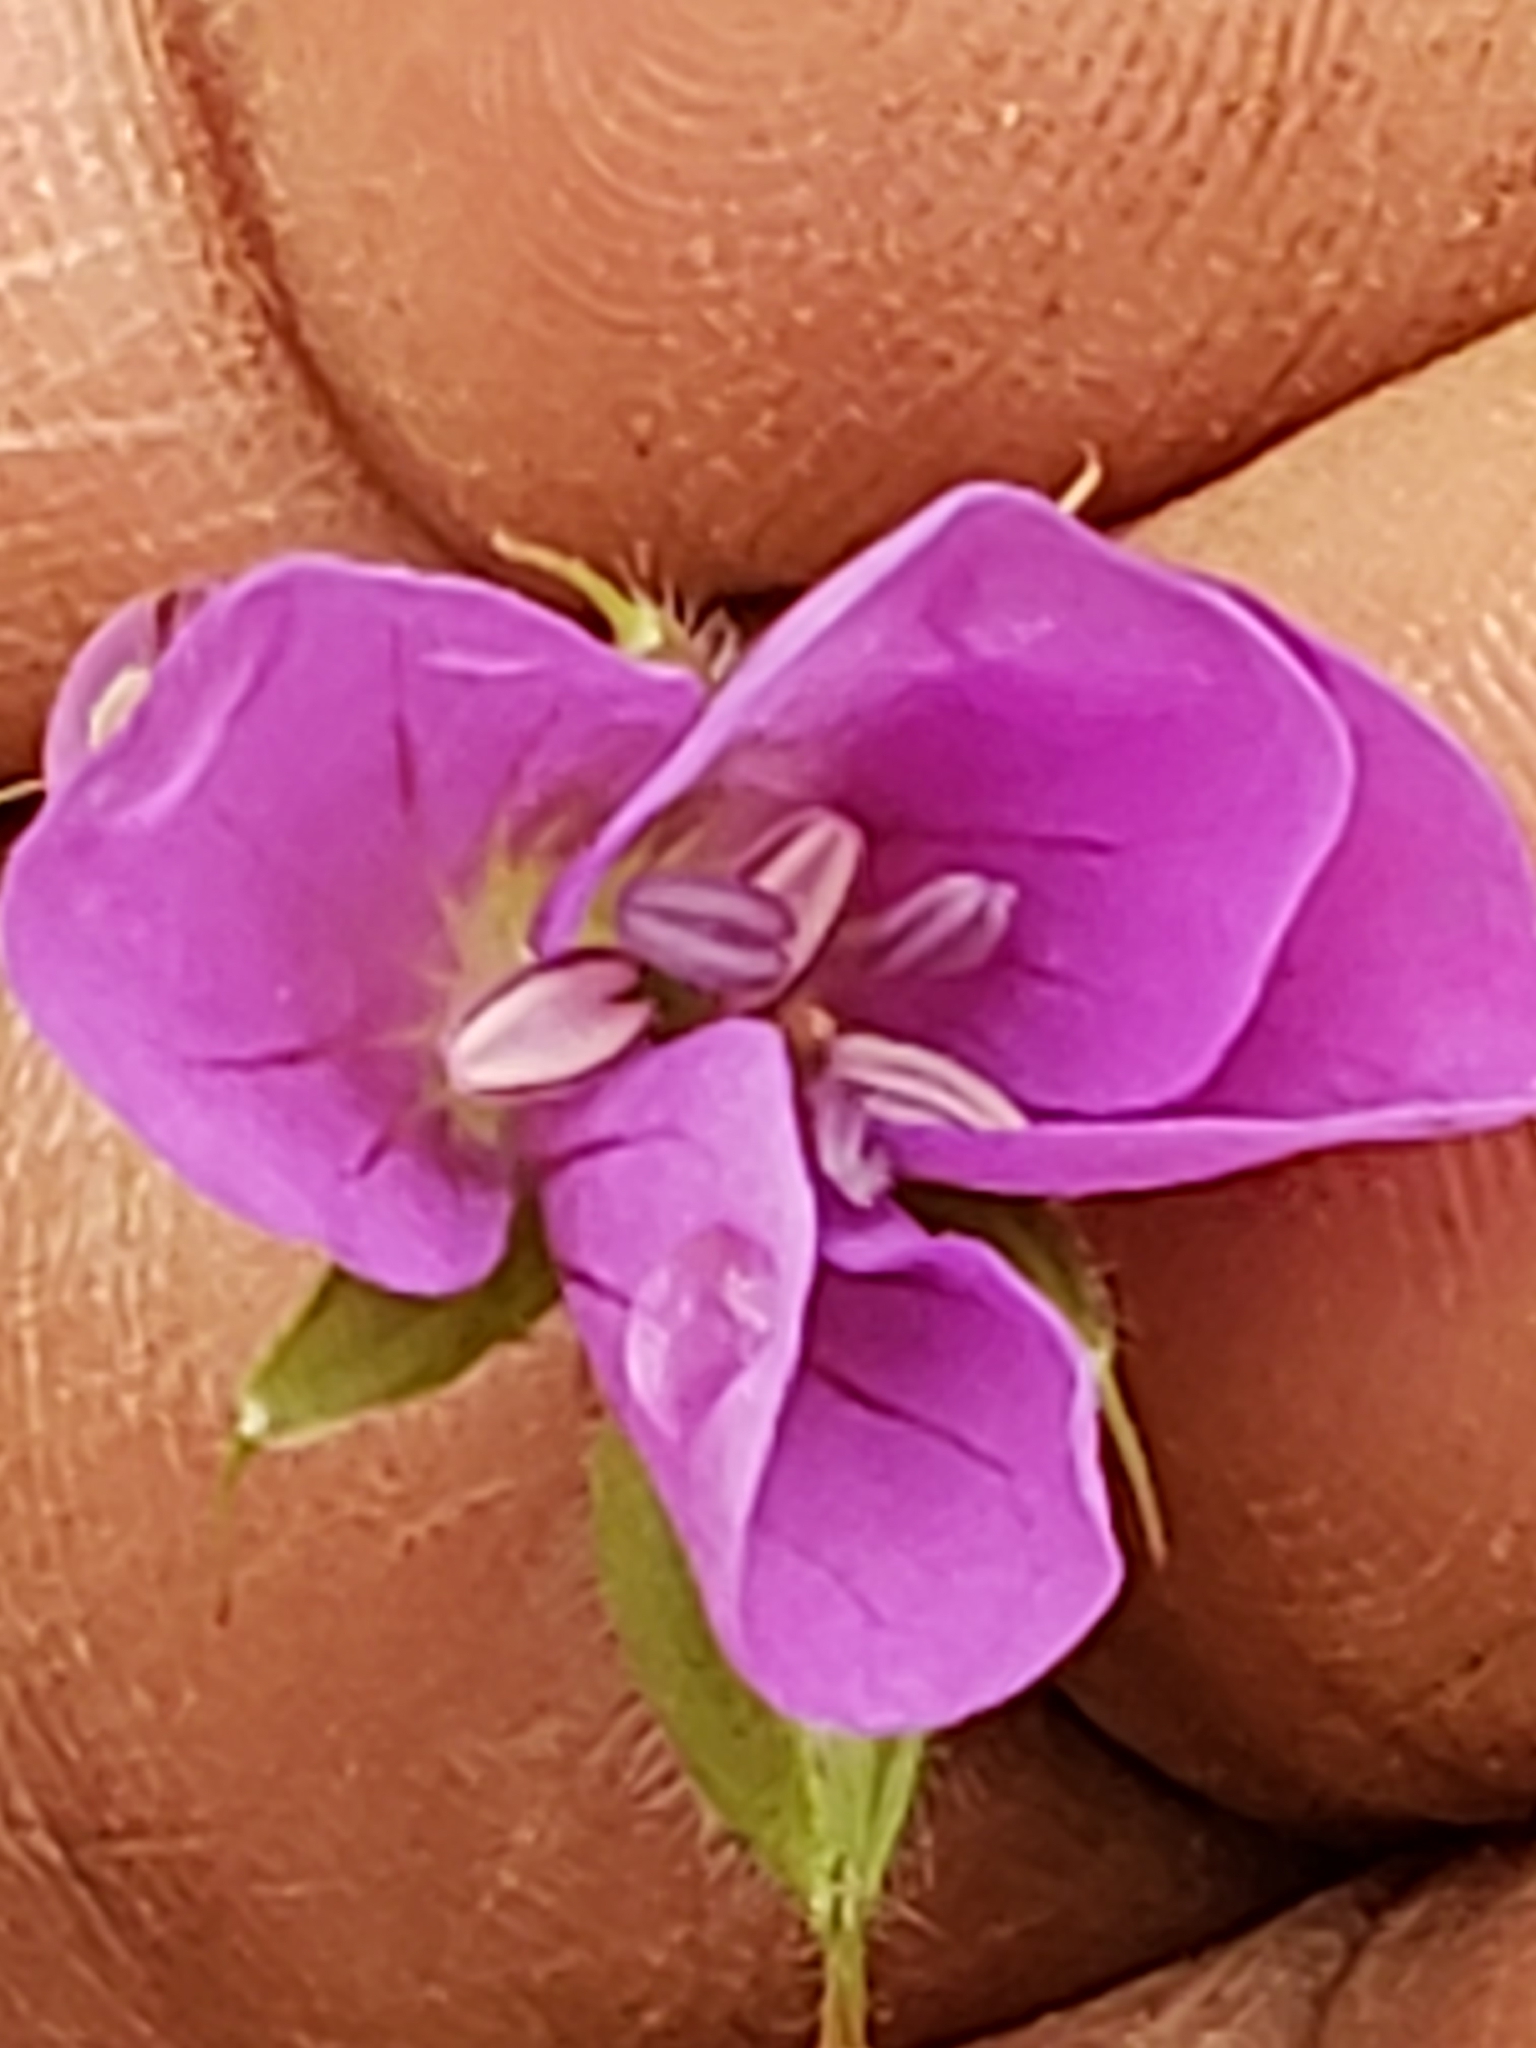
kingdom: Plantae
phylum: Tracheophyta
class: Magnoliopsida
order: Geraniales
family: Geraniaceae
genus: Geranium
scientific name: Geranium maculatum
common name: Spotted geranium
